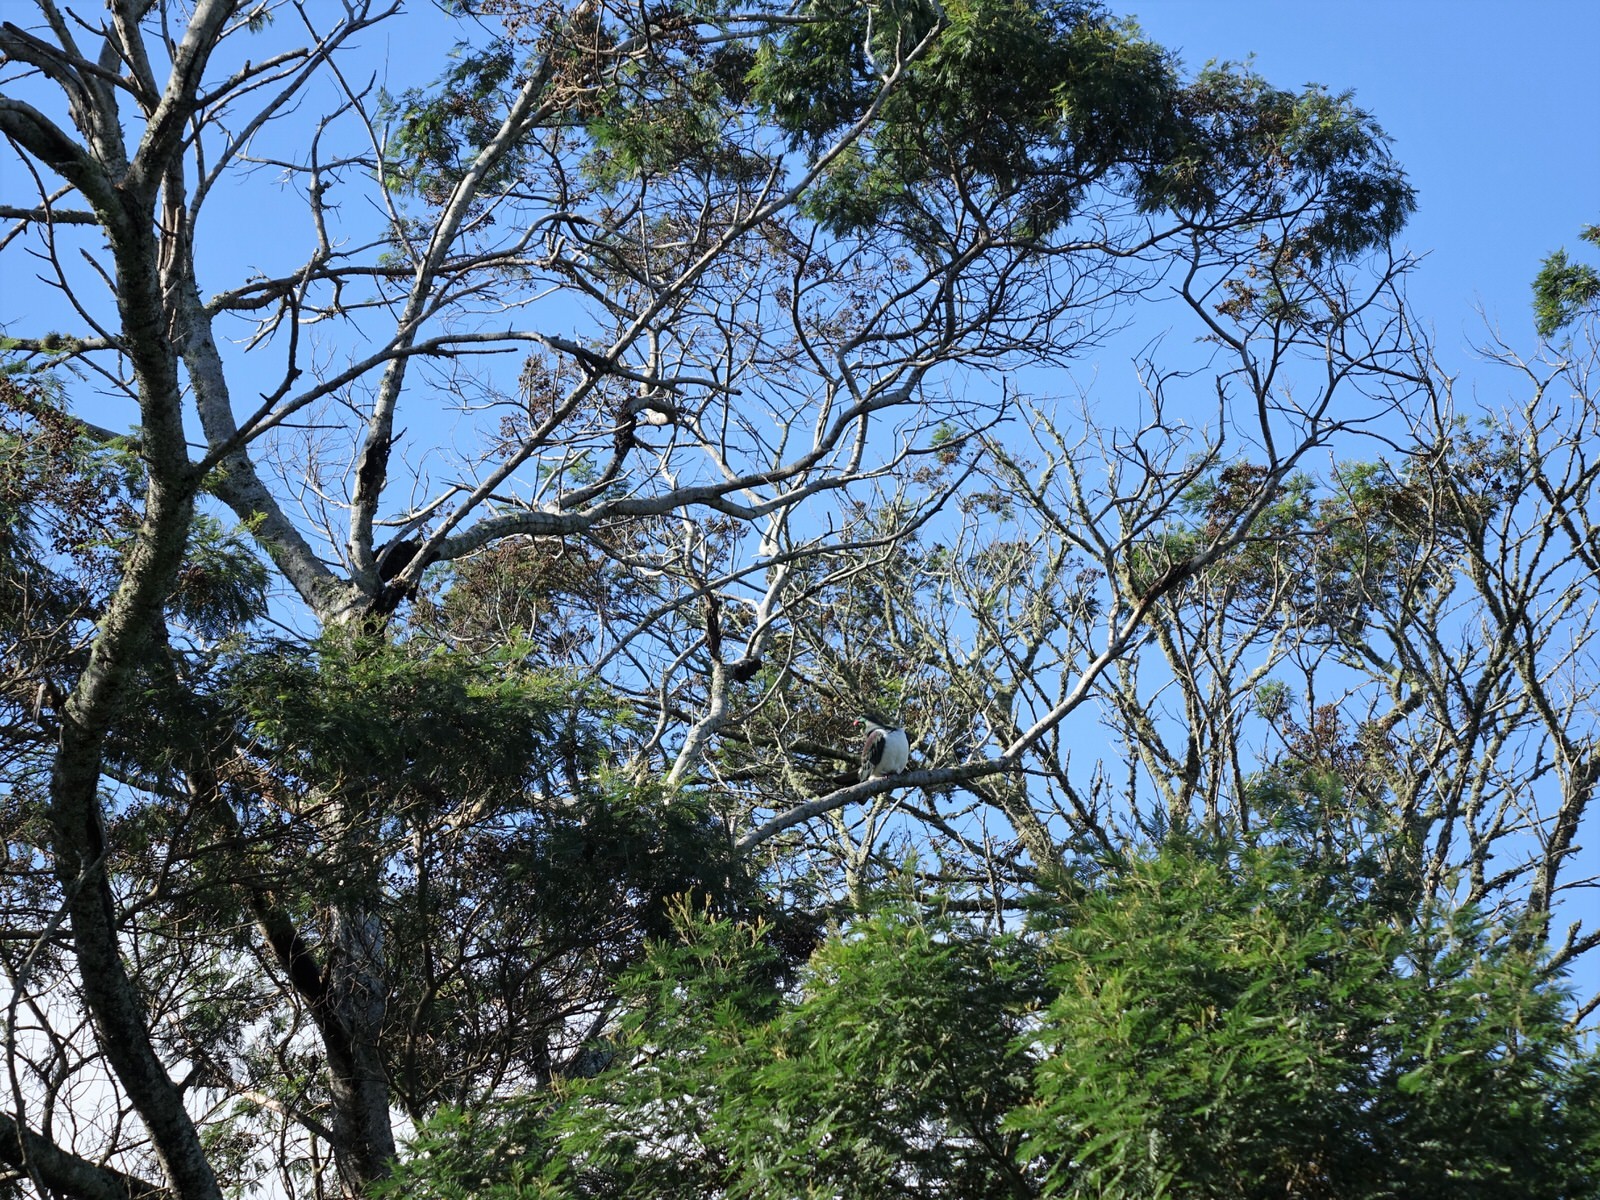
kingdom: Animalia
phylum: Chordata
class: Aves
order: Columbiformes
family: Columbidae
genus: Hemiphaga
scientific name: Hemiphaga novaeseelandiae
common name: New zealand pigeon
